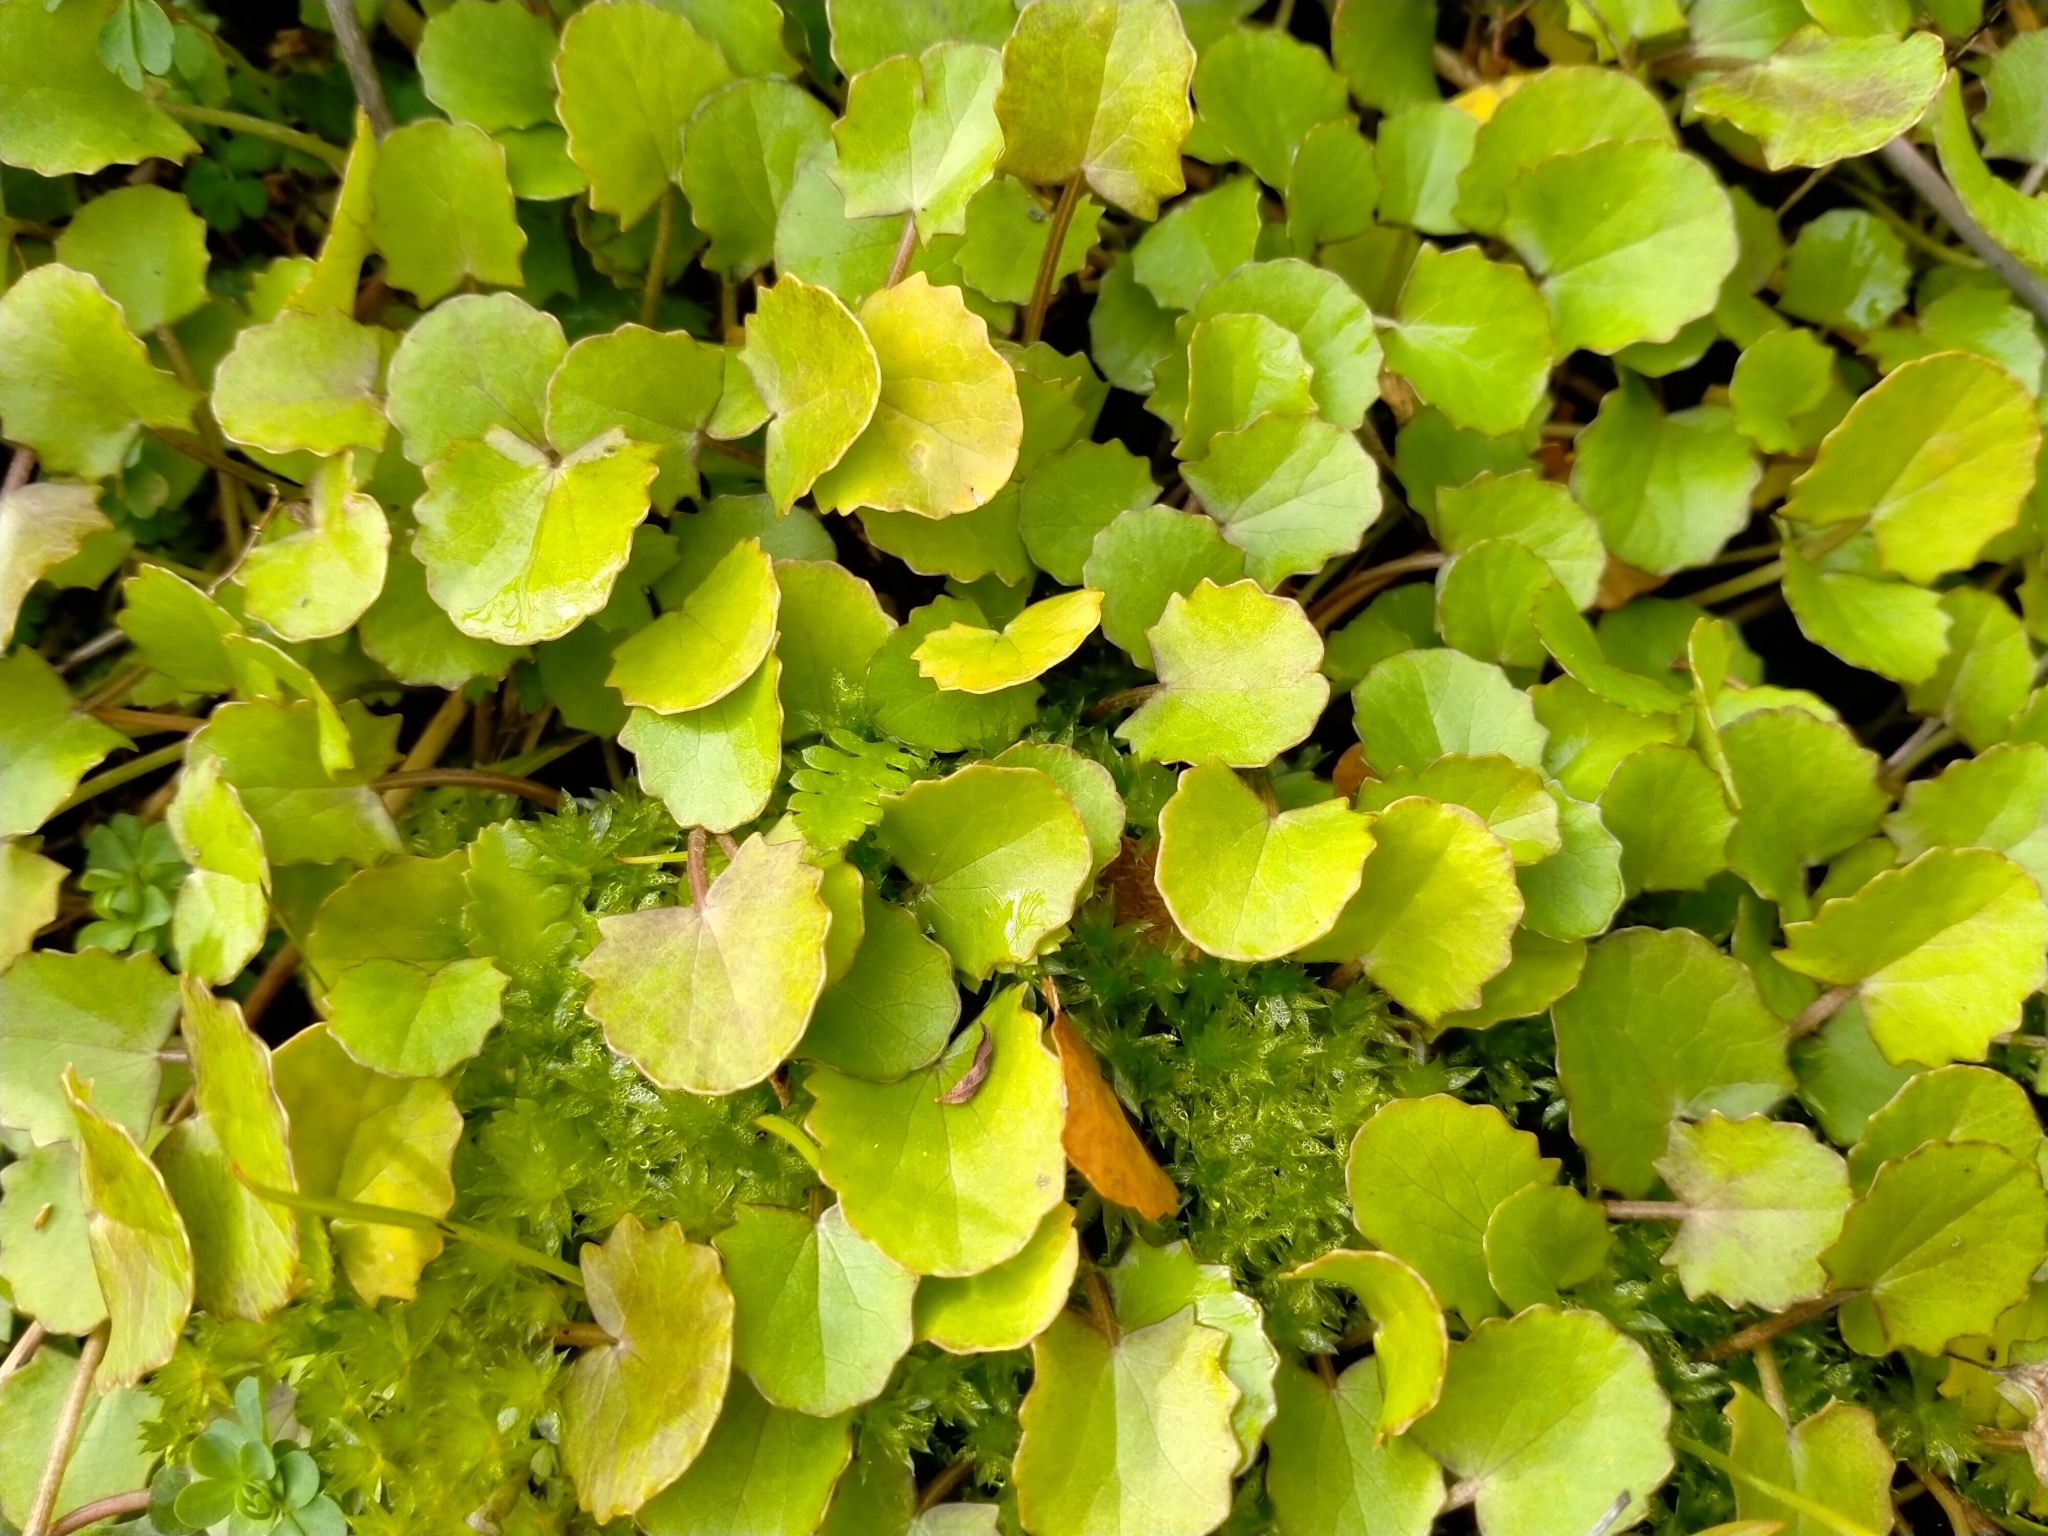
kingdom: Plantae
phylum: Tracheophyta
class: Magnoliopsida
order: Apiales
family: Apiaceae
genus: Centella
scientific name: Centella uniflora
